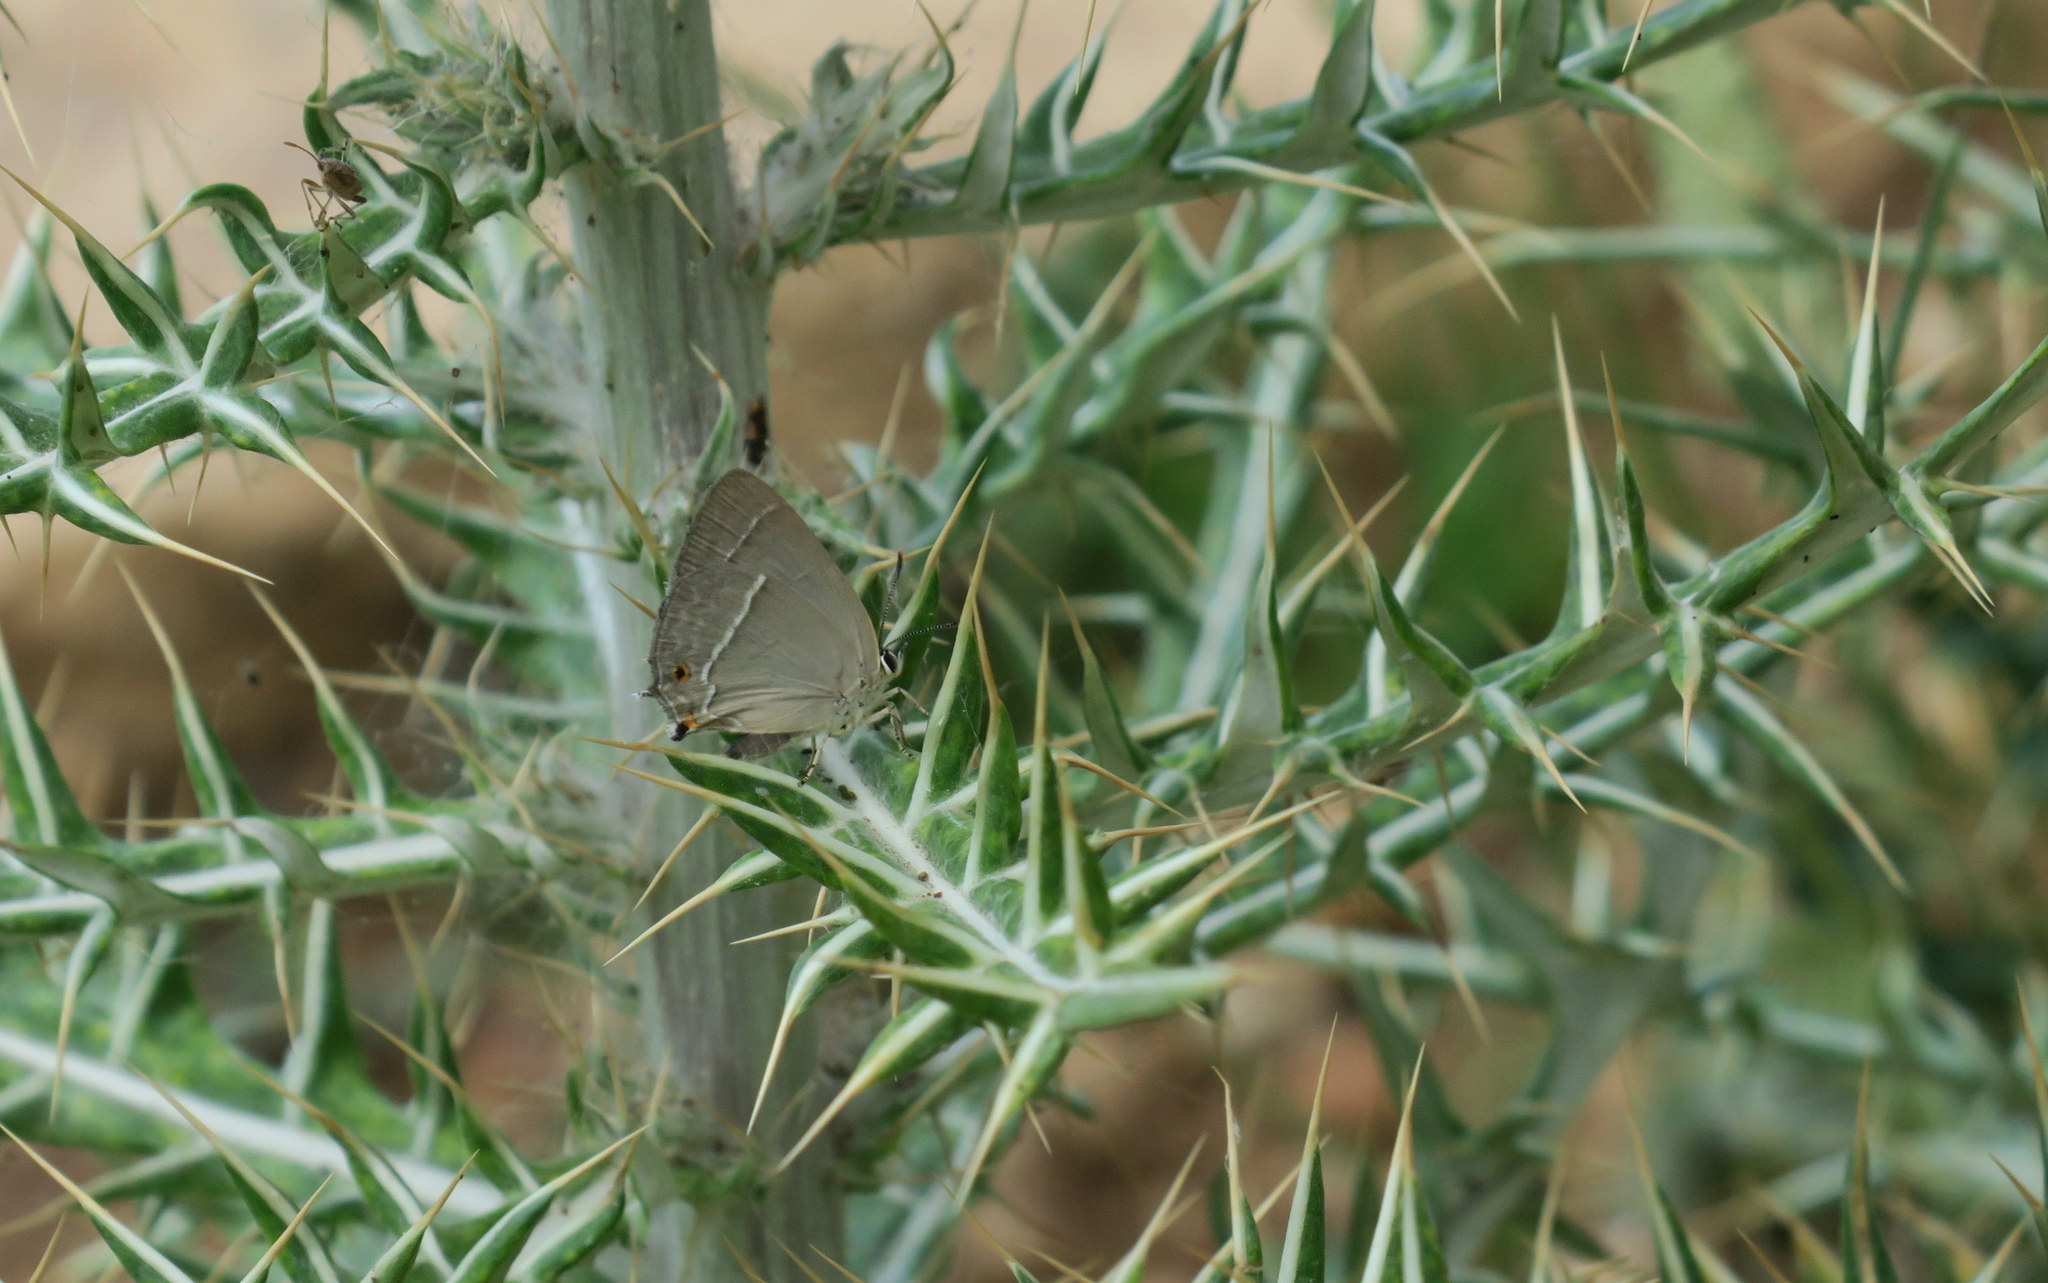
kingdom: Animalia
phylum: Arthropoda
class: Insecta
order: Lepidoptera
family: Lycaenidae
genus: Quercusia
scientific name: Quercusia quercus
